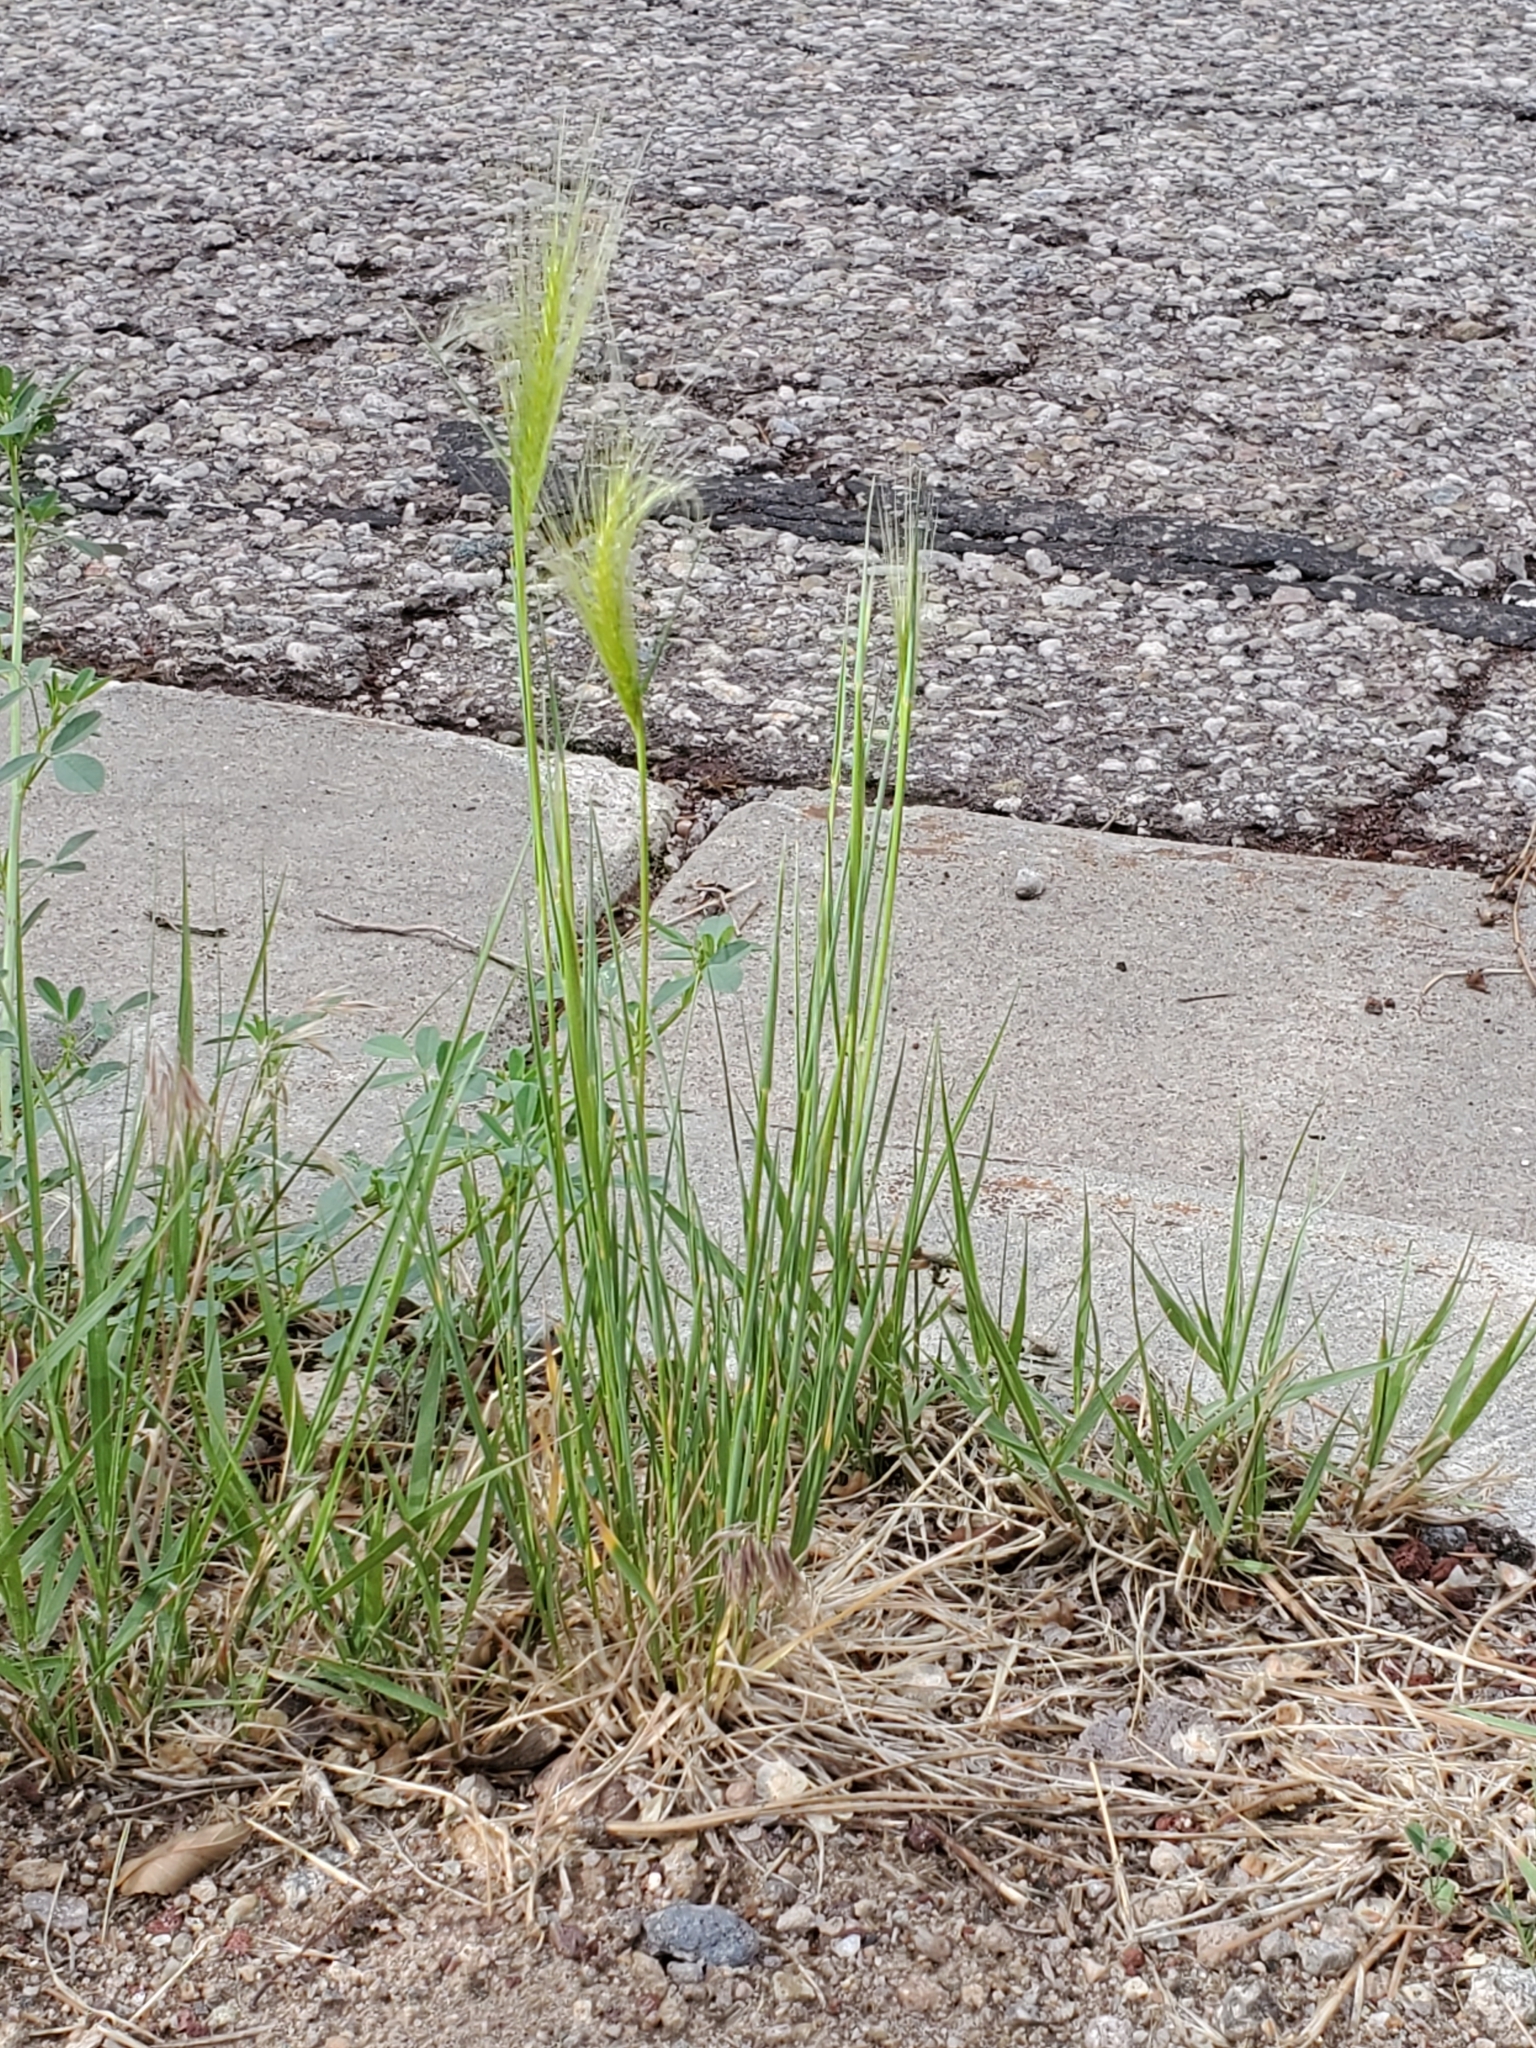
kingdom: Plantae
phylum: Tracheophyta
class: Liliopsida
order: Poales
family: Poaceae
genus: Hordeum
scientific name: Hordeum jubatum
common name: Foxtail barley
